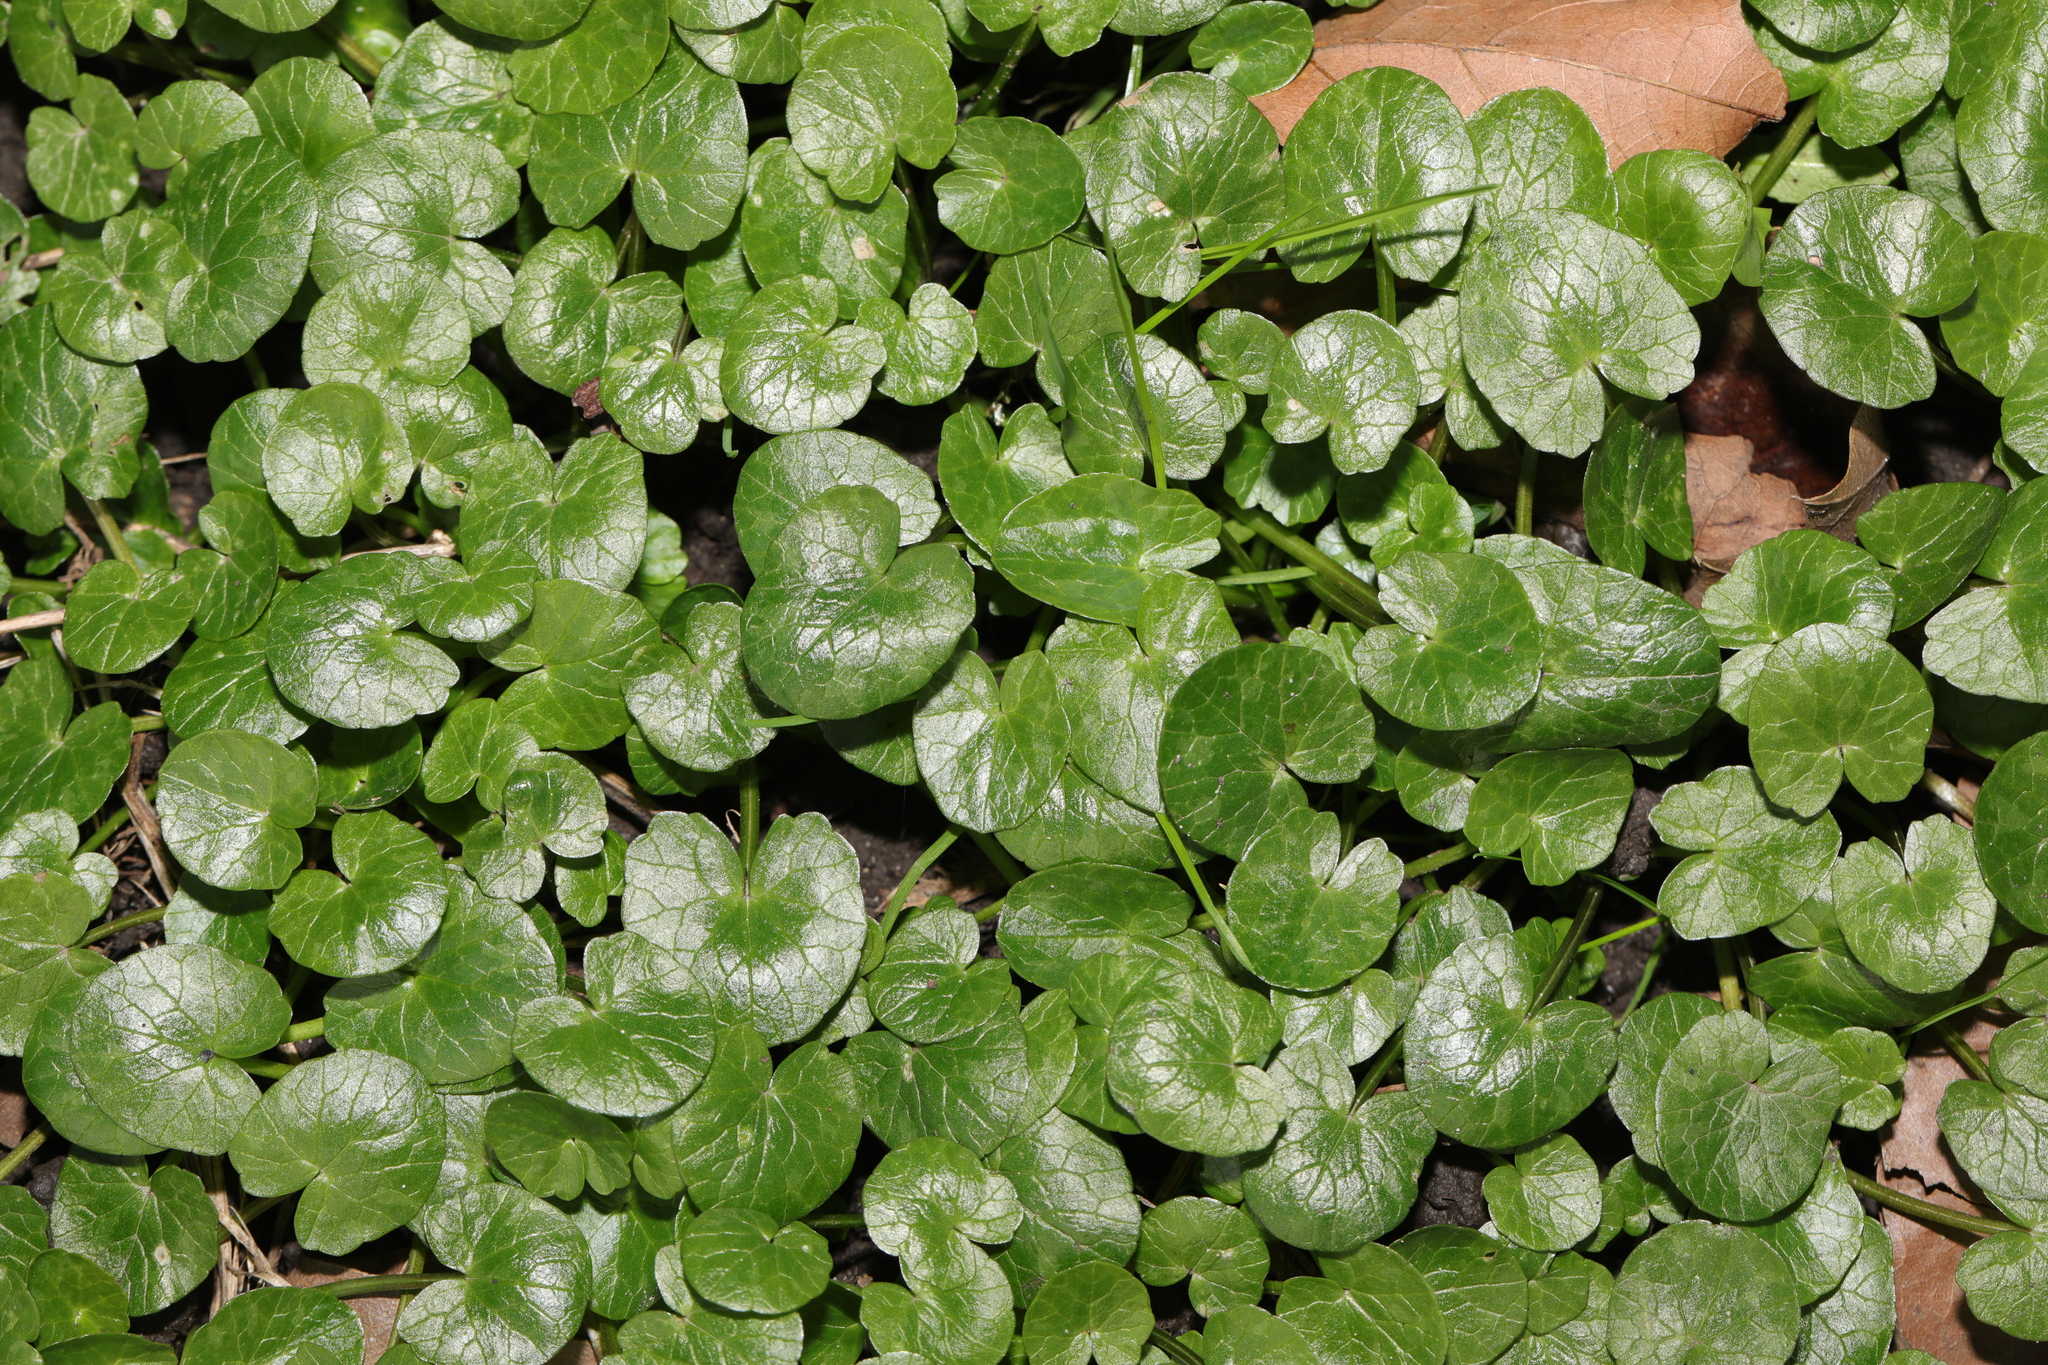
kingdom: Plantae
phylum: Tracheophyta
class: Magnoliopsida
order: Ranunculales
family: Ranunculaceae
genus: Ficaria
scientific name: Ficaria verna
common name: Lesser celandine
